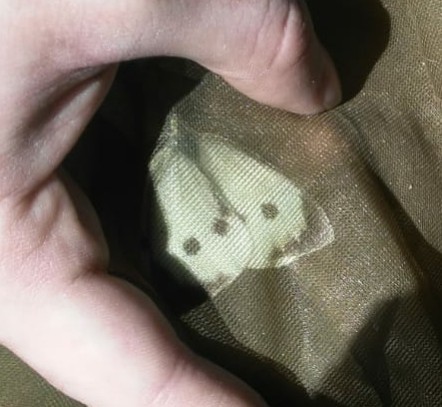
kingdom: Animalia
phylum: Arthropoda
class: Insecta
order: Lepidoptera
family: Pieridae
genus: Pieris
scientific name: Pieris brassicae
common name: Large white
